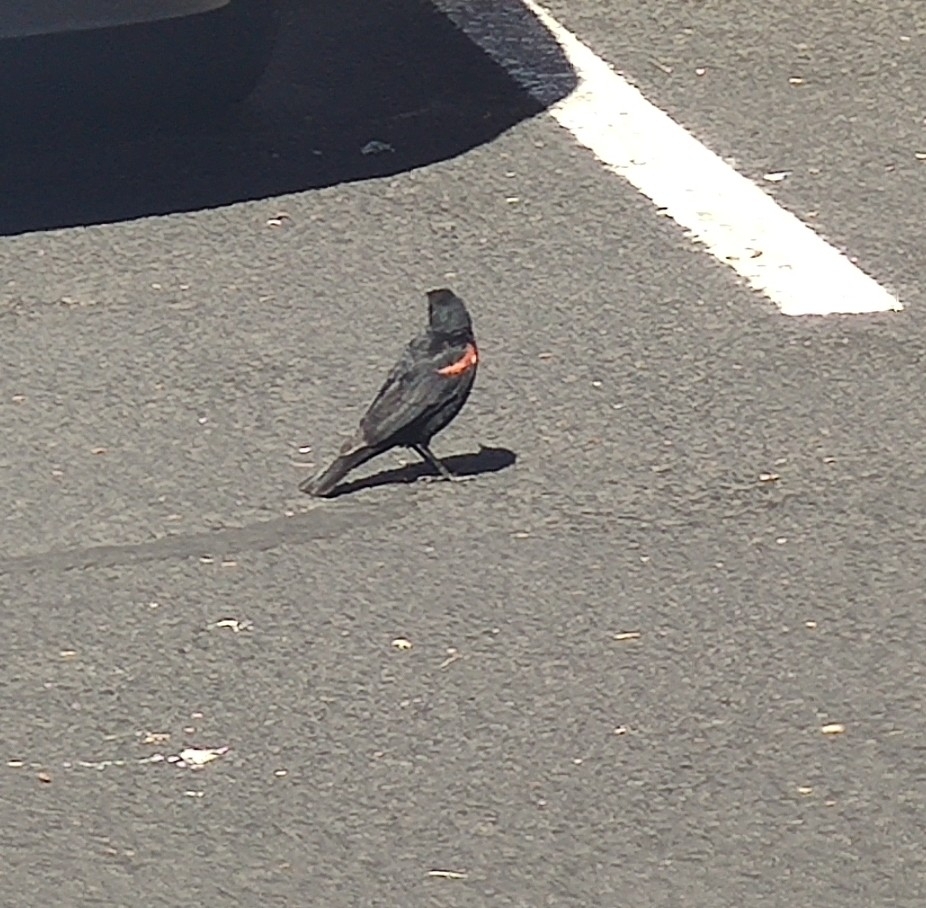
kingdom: Animalia
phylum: Chordata
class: Aves
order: Passeriformes
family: Icteridae
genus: Agelaius
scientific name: Agelaius phoeniceus
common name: Red-winged blackbird
